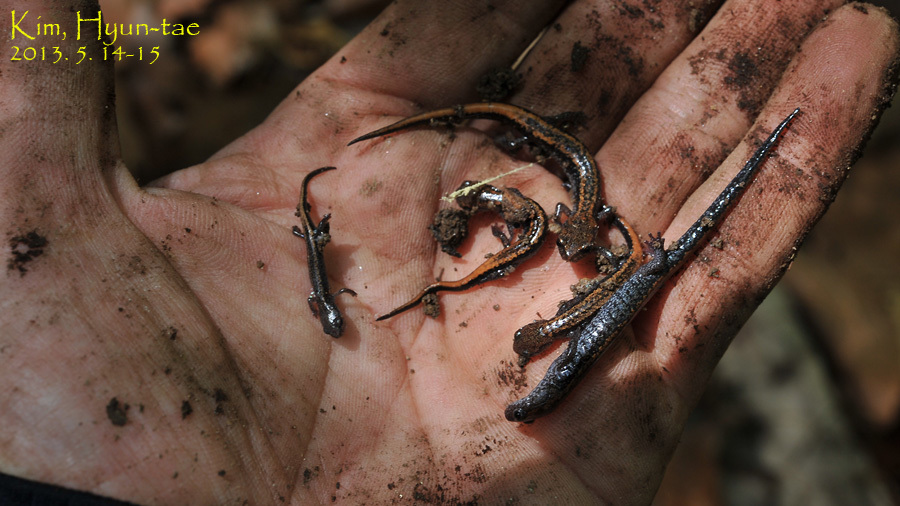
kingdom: Animalia
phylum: Chordata
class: Amphibia
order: Caudata
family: Plethodontidae
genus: Karsenia
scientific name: Karsenia koreana
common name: Korean crevice salamander
